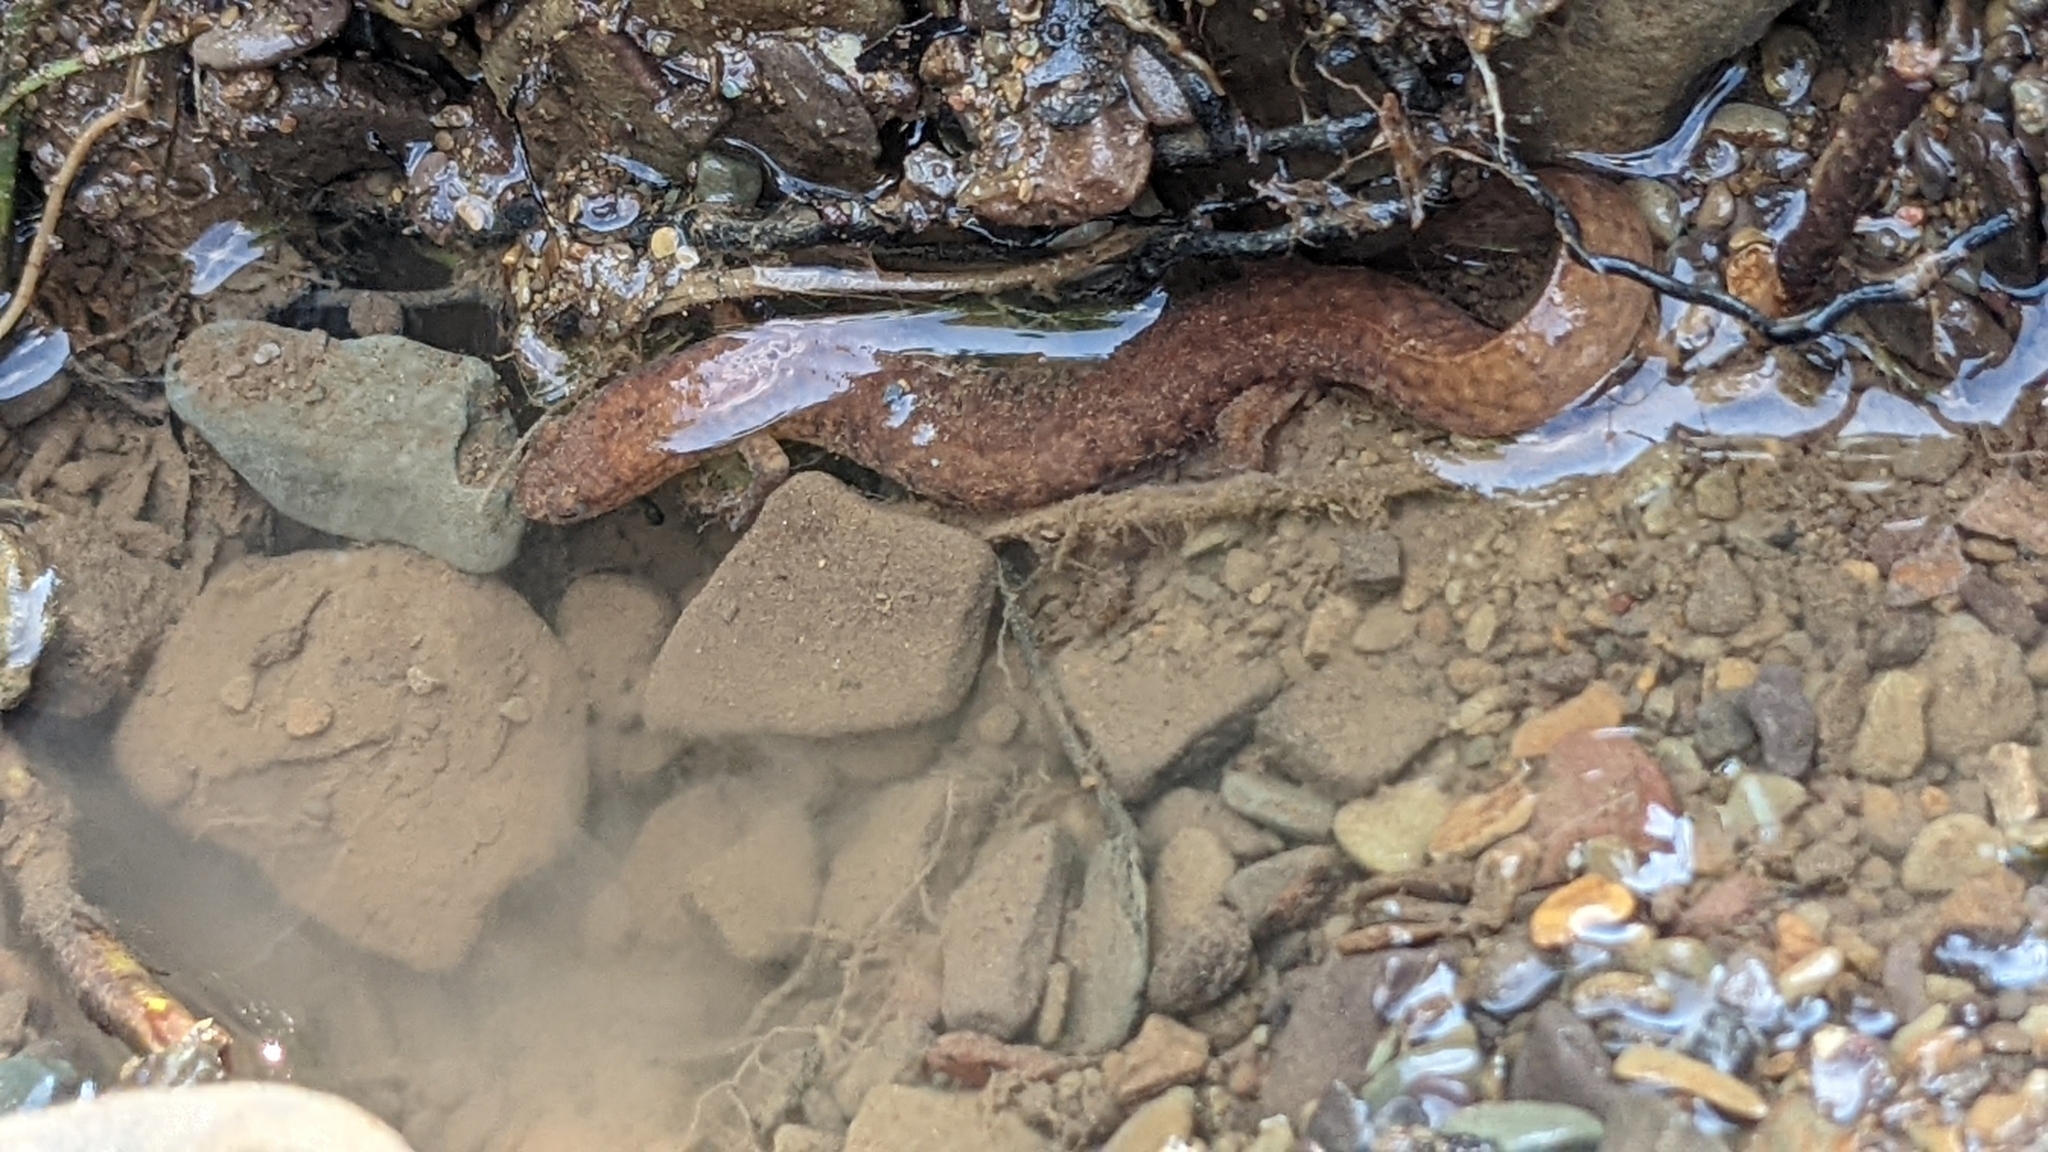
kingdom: Animalia
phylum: Chordata
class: Amphibia
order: Caudata
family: Plethodontidae
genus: Gyrinophilus
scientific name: Gyrinophilus porphyriticus
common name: Spring salamander
